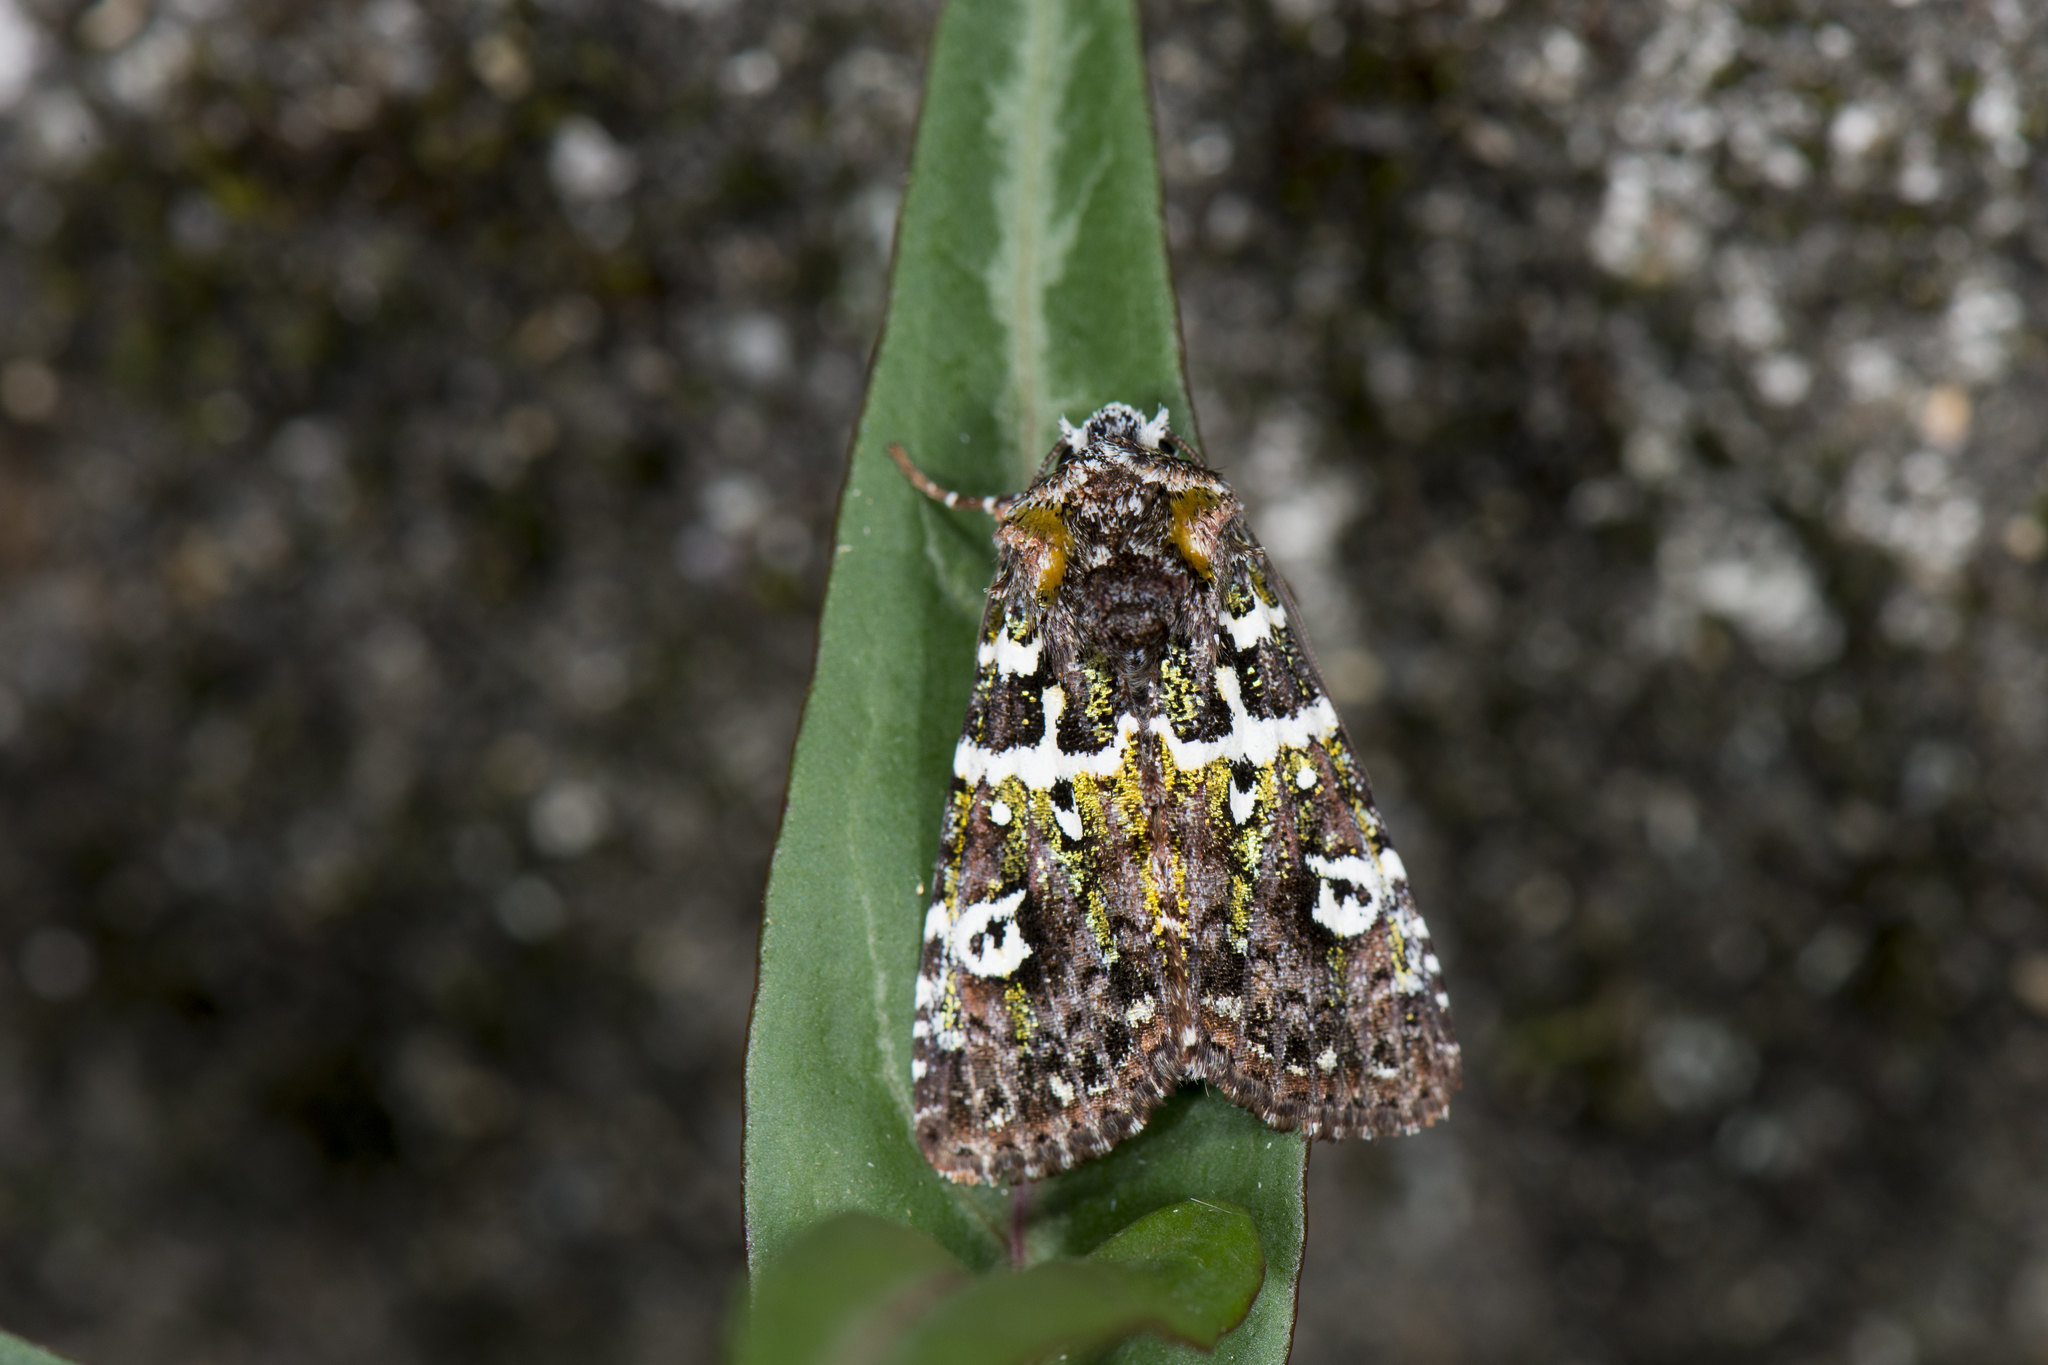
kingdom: Animalia
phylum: Arthropoda
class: Insecta
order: Lepidoptera
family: Noctuidae
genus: Karana
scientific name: Karana gemmifera
